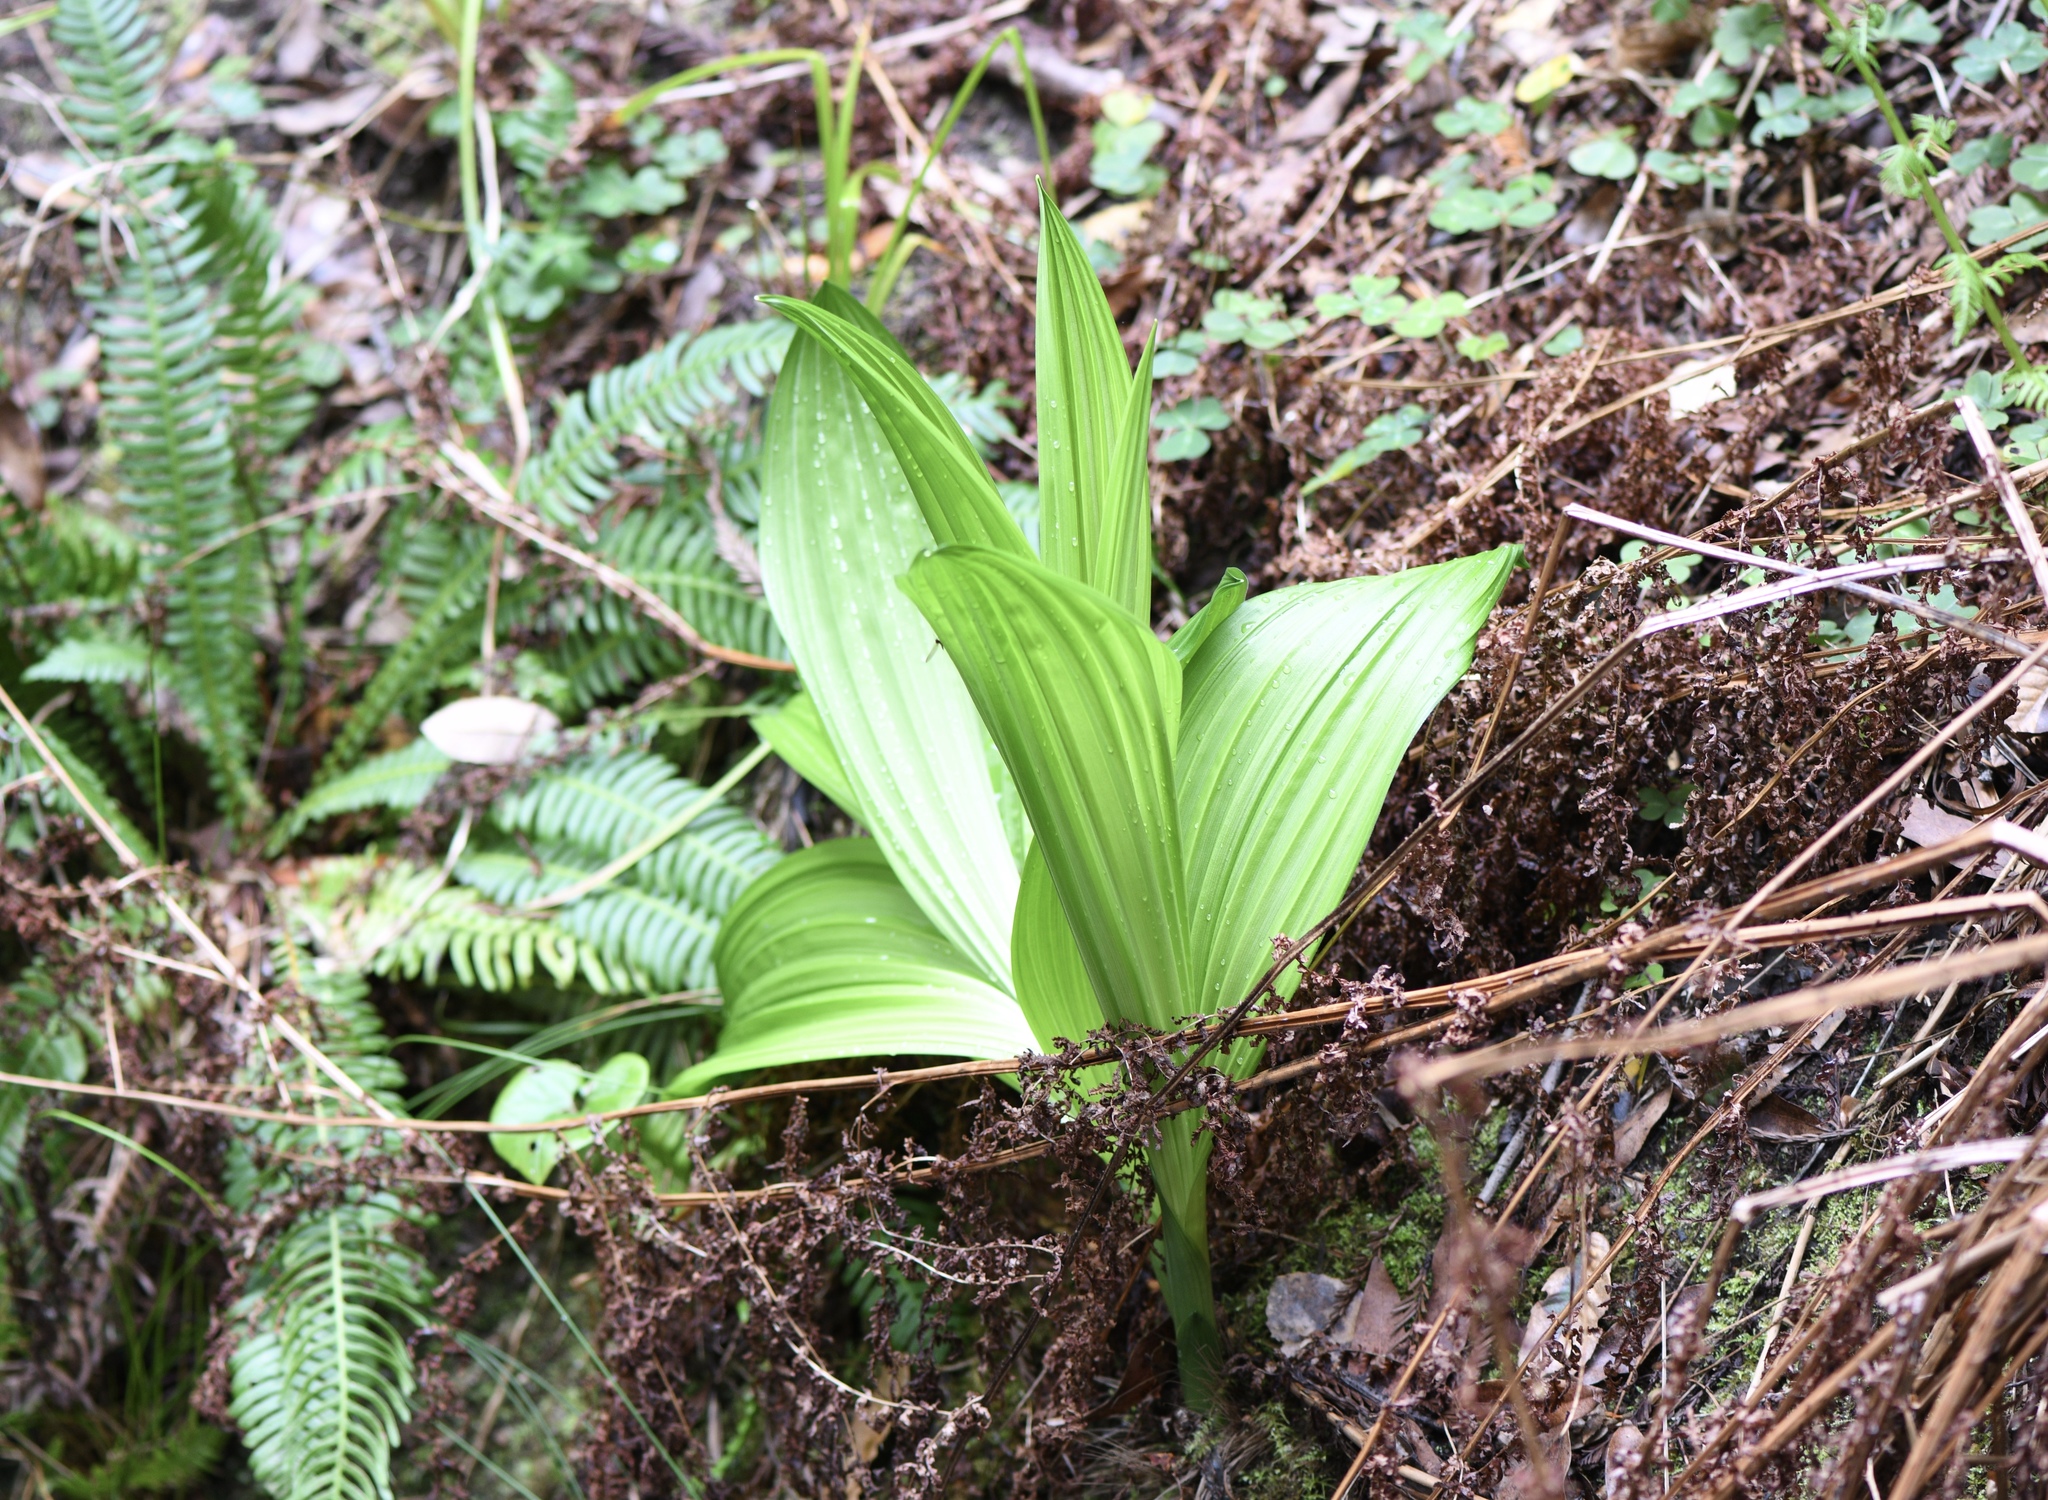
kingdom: Plantae
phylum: Tracheophyta
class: Liliopsida
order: Liliales
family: Melanthiaceae
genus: Veratrum
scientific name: Veratrum fimbriatum
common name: Fringe false hellobore
